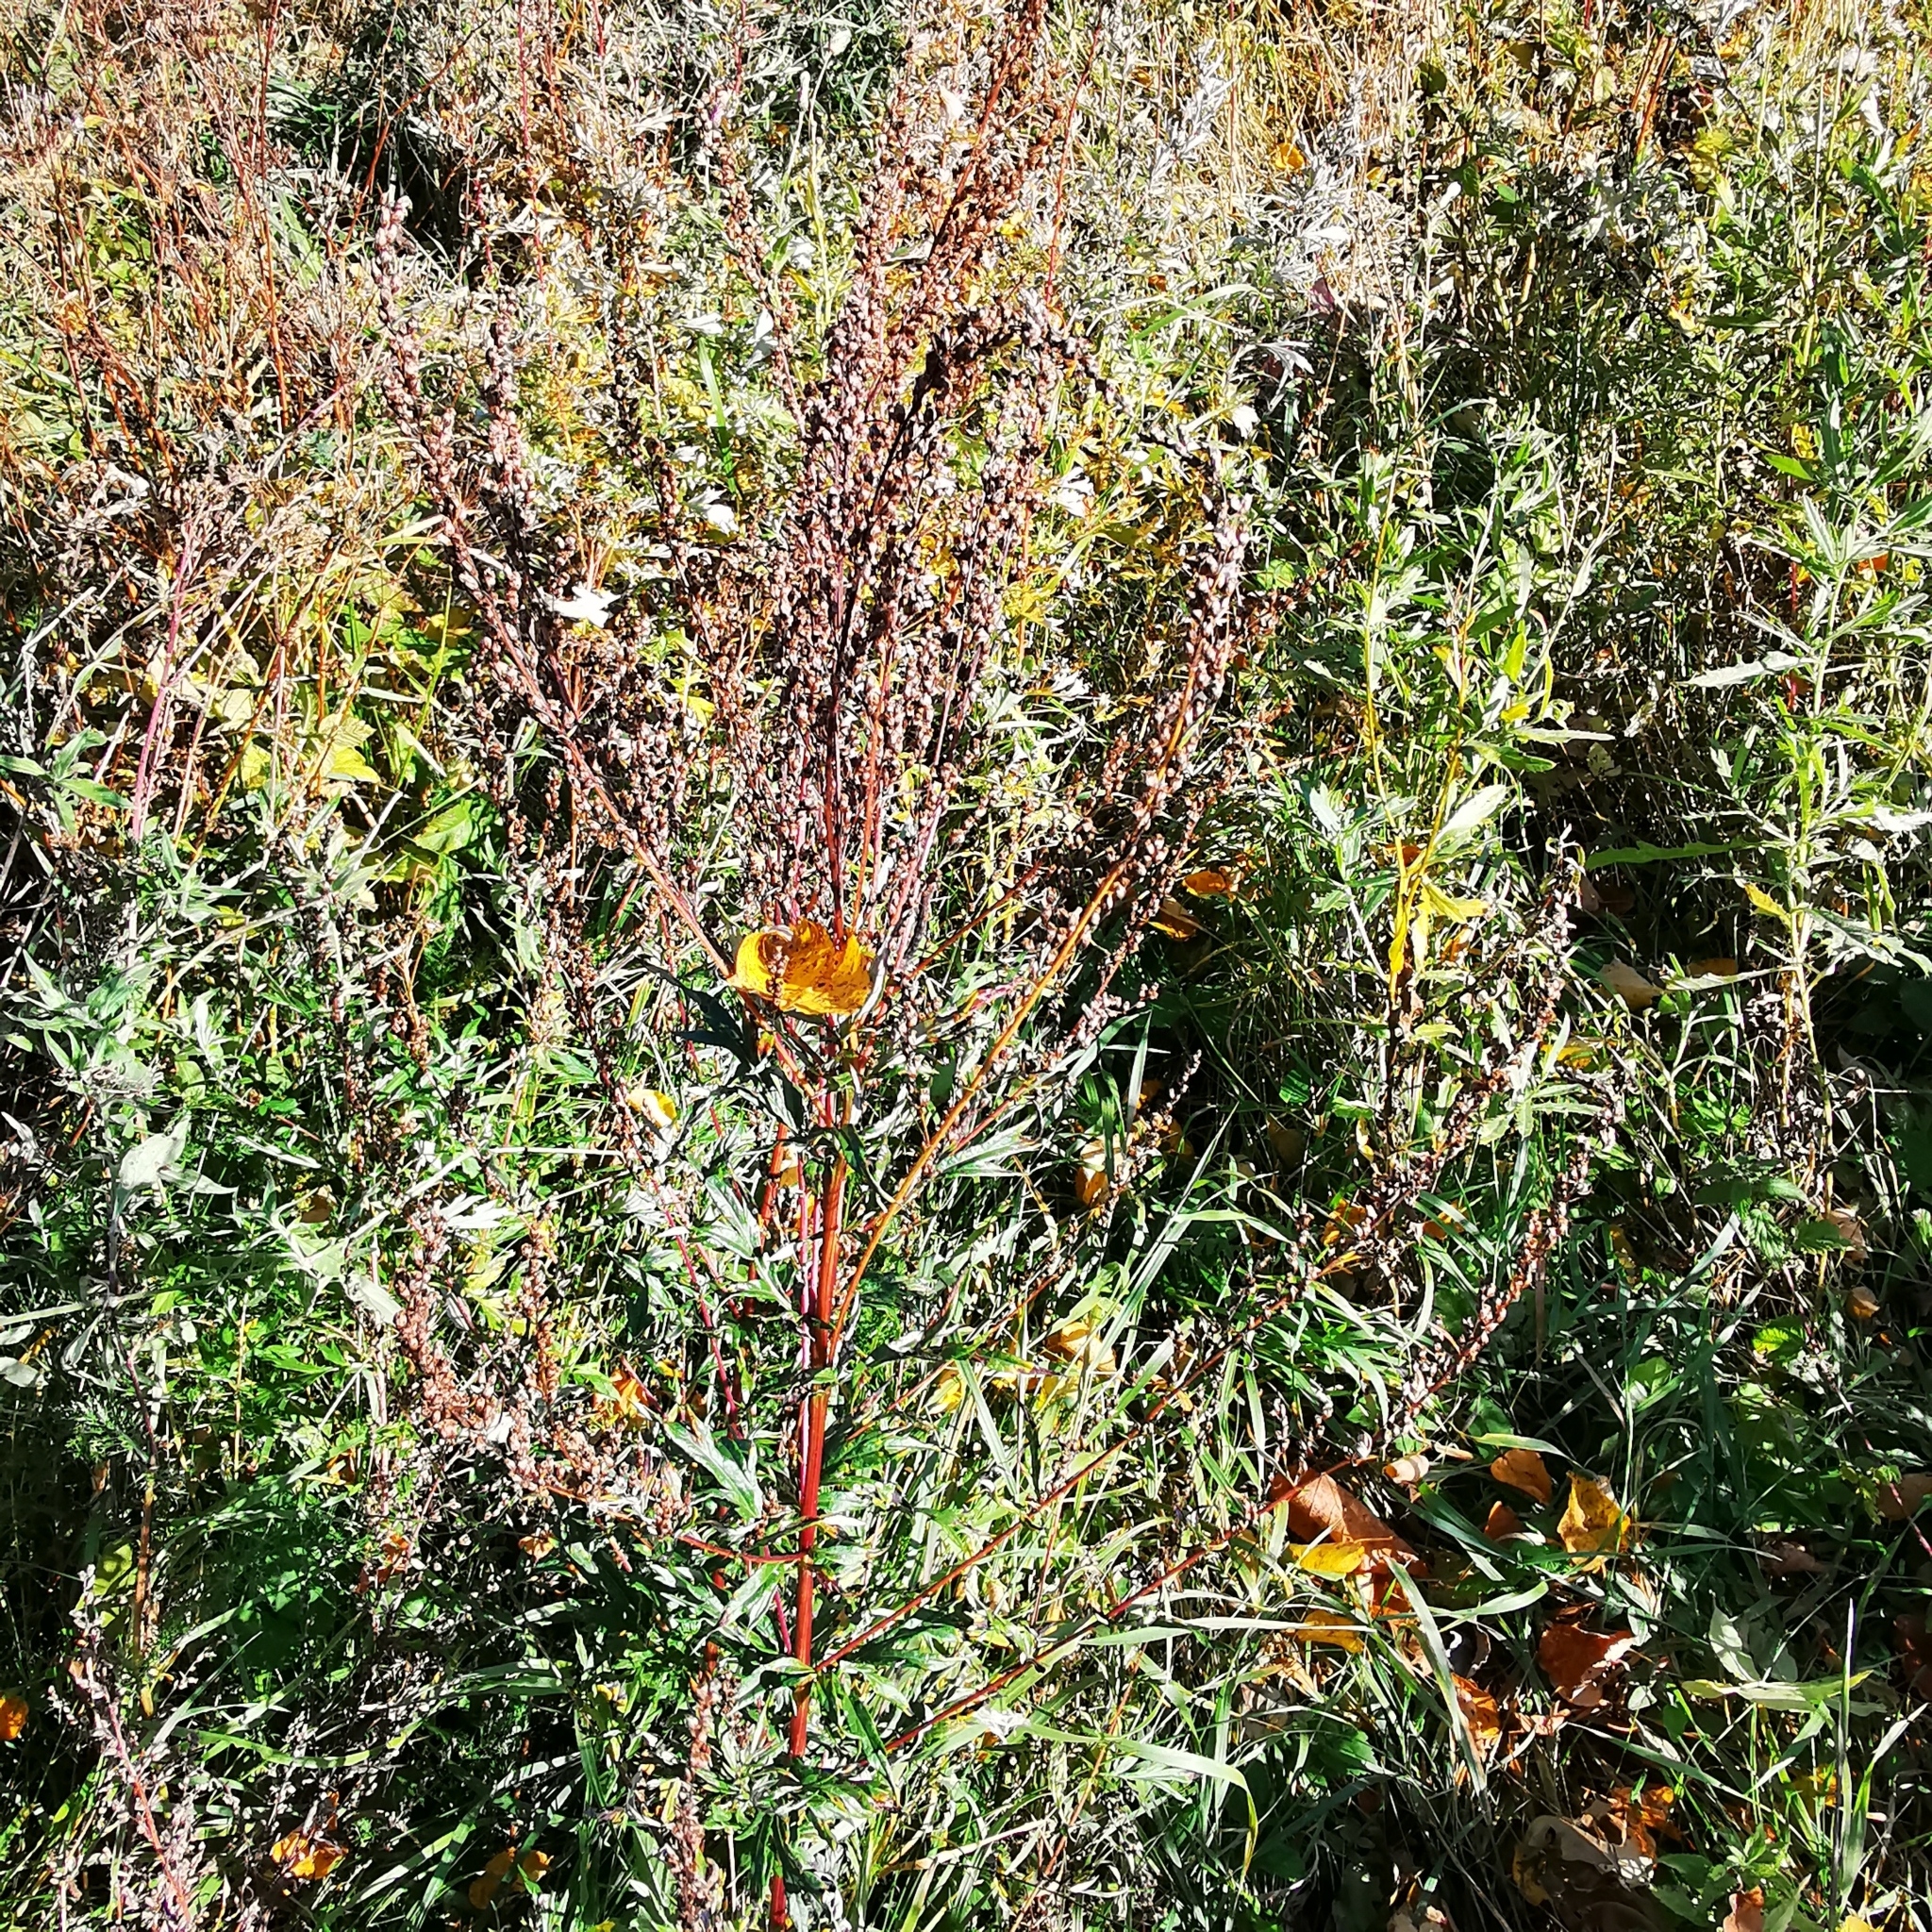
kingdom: Plantae
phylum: Tracheophyta
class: Magnoliopsida
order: Asterales
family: Asteraceae
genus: Artemisia
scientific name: Artemisia vulgaris
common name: Mugwort
